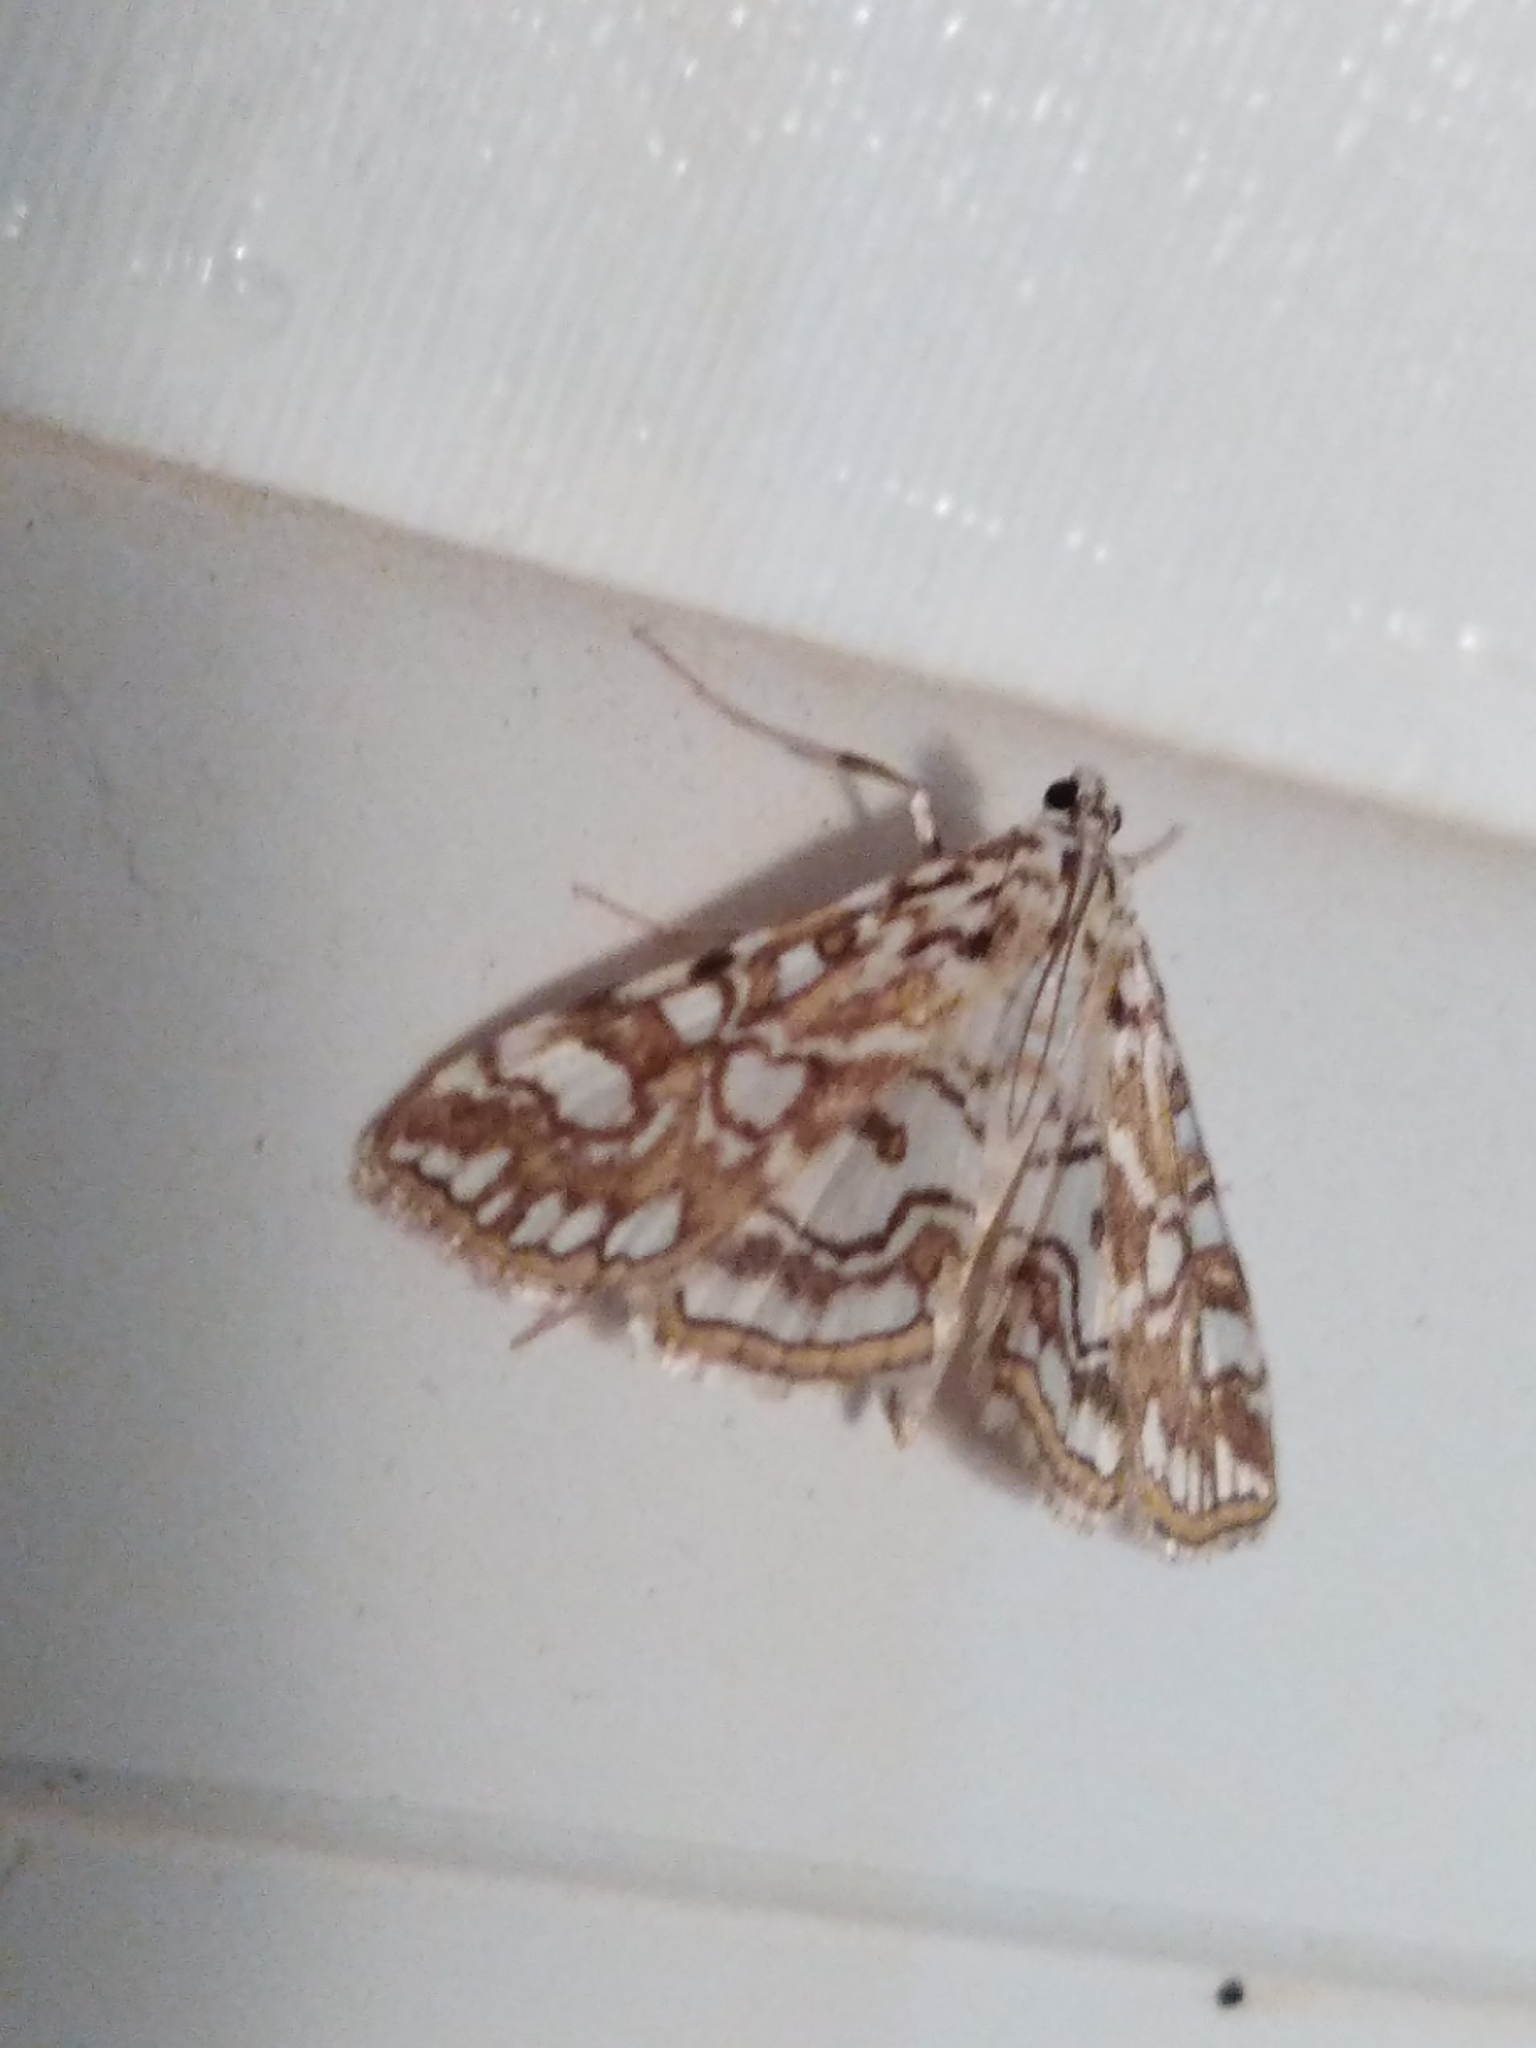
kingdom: Animalia
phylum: Arthropoda
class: Insecta
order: Lepidoptera
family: Crambidae
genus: Elophila
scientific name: Elophila nymphaeata
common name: Brown china-mark
